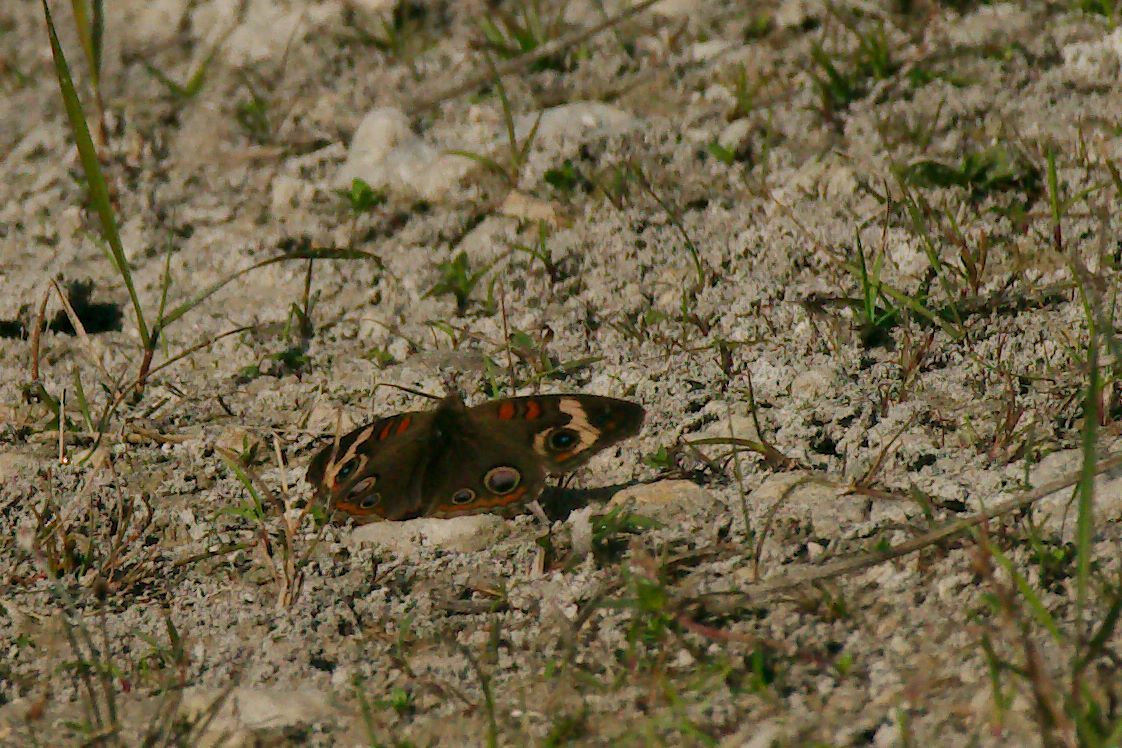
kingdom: Animalia
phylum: Arthropoda
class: Insecta
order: Lepidoptera
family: Nymphalidae
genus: Junonia
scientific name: Junonia coenia
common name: Common buckeye
